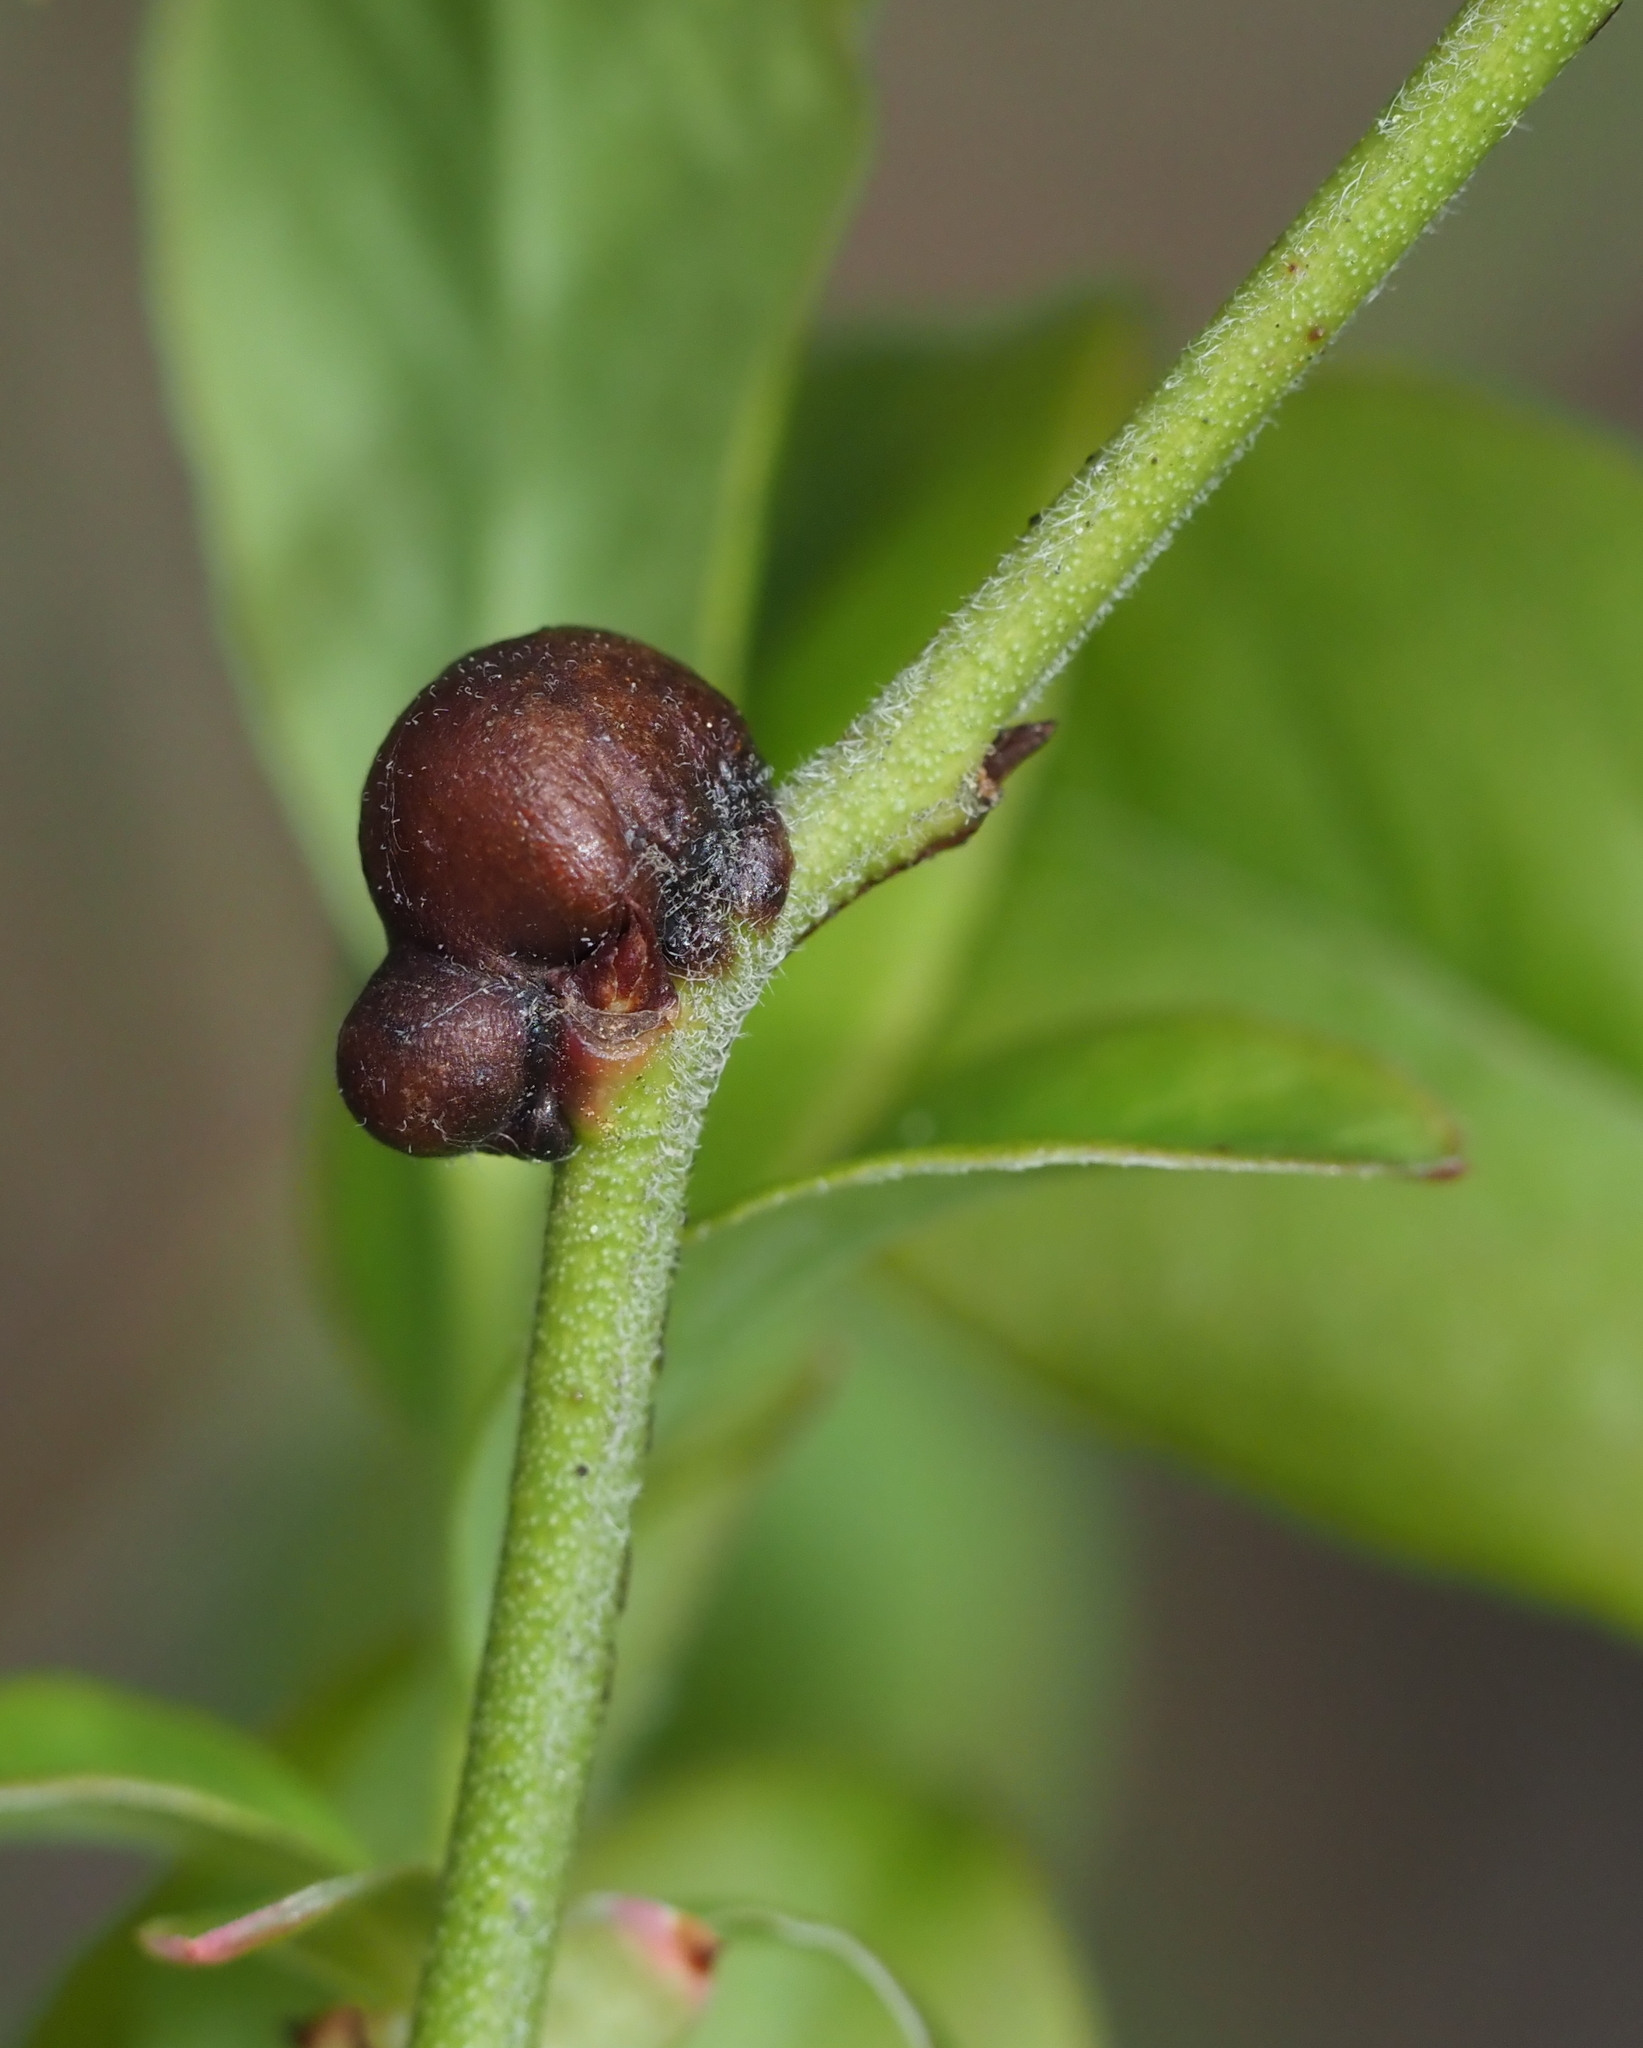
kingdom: Animalia
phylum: Arthropoda
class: Insecta
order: Hymenoptera
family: Pteromalidae
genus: Hemadas
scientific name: Hemadas nubilipennis
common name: Blueberry stem gall wasp
